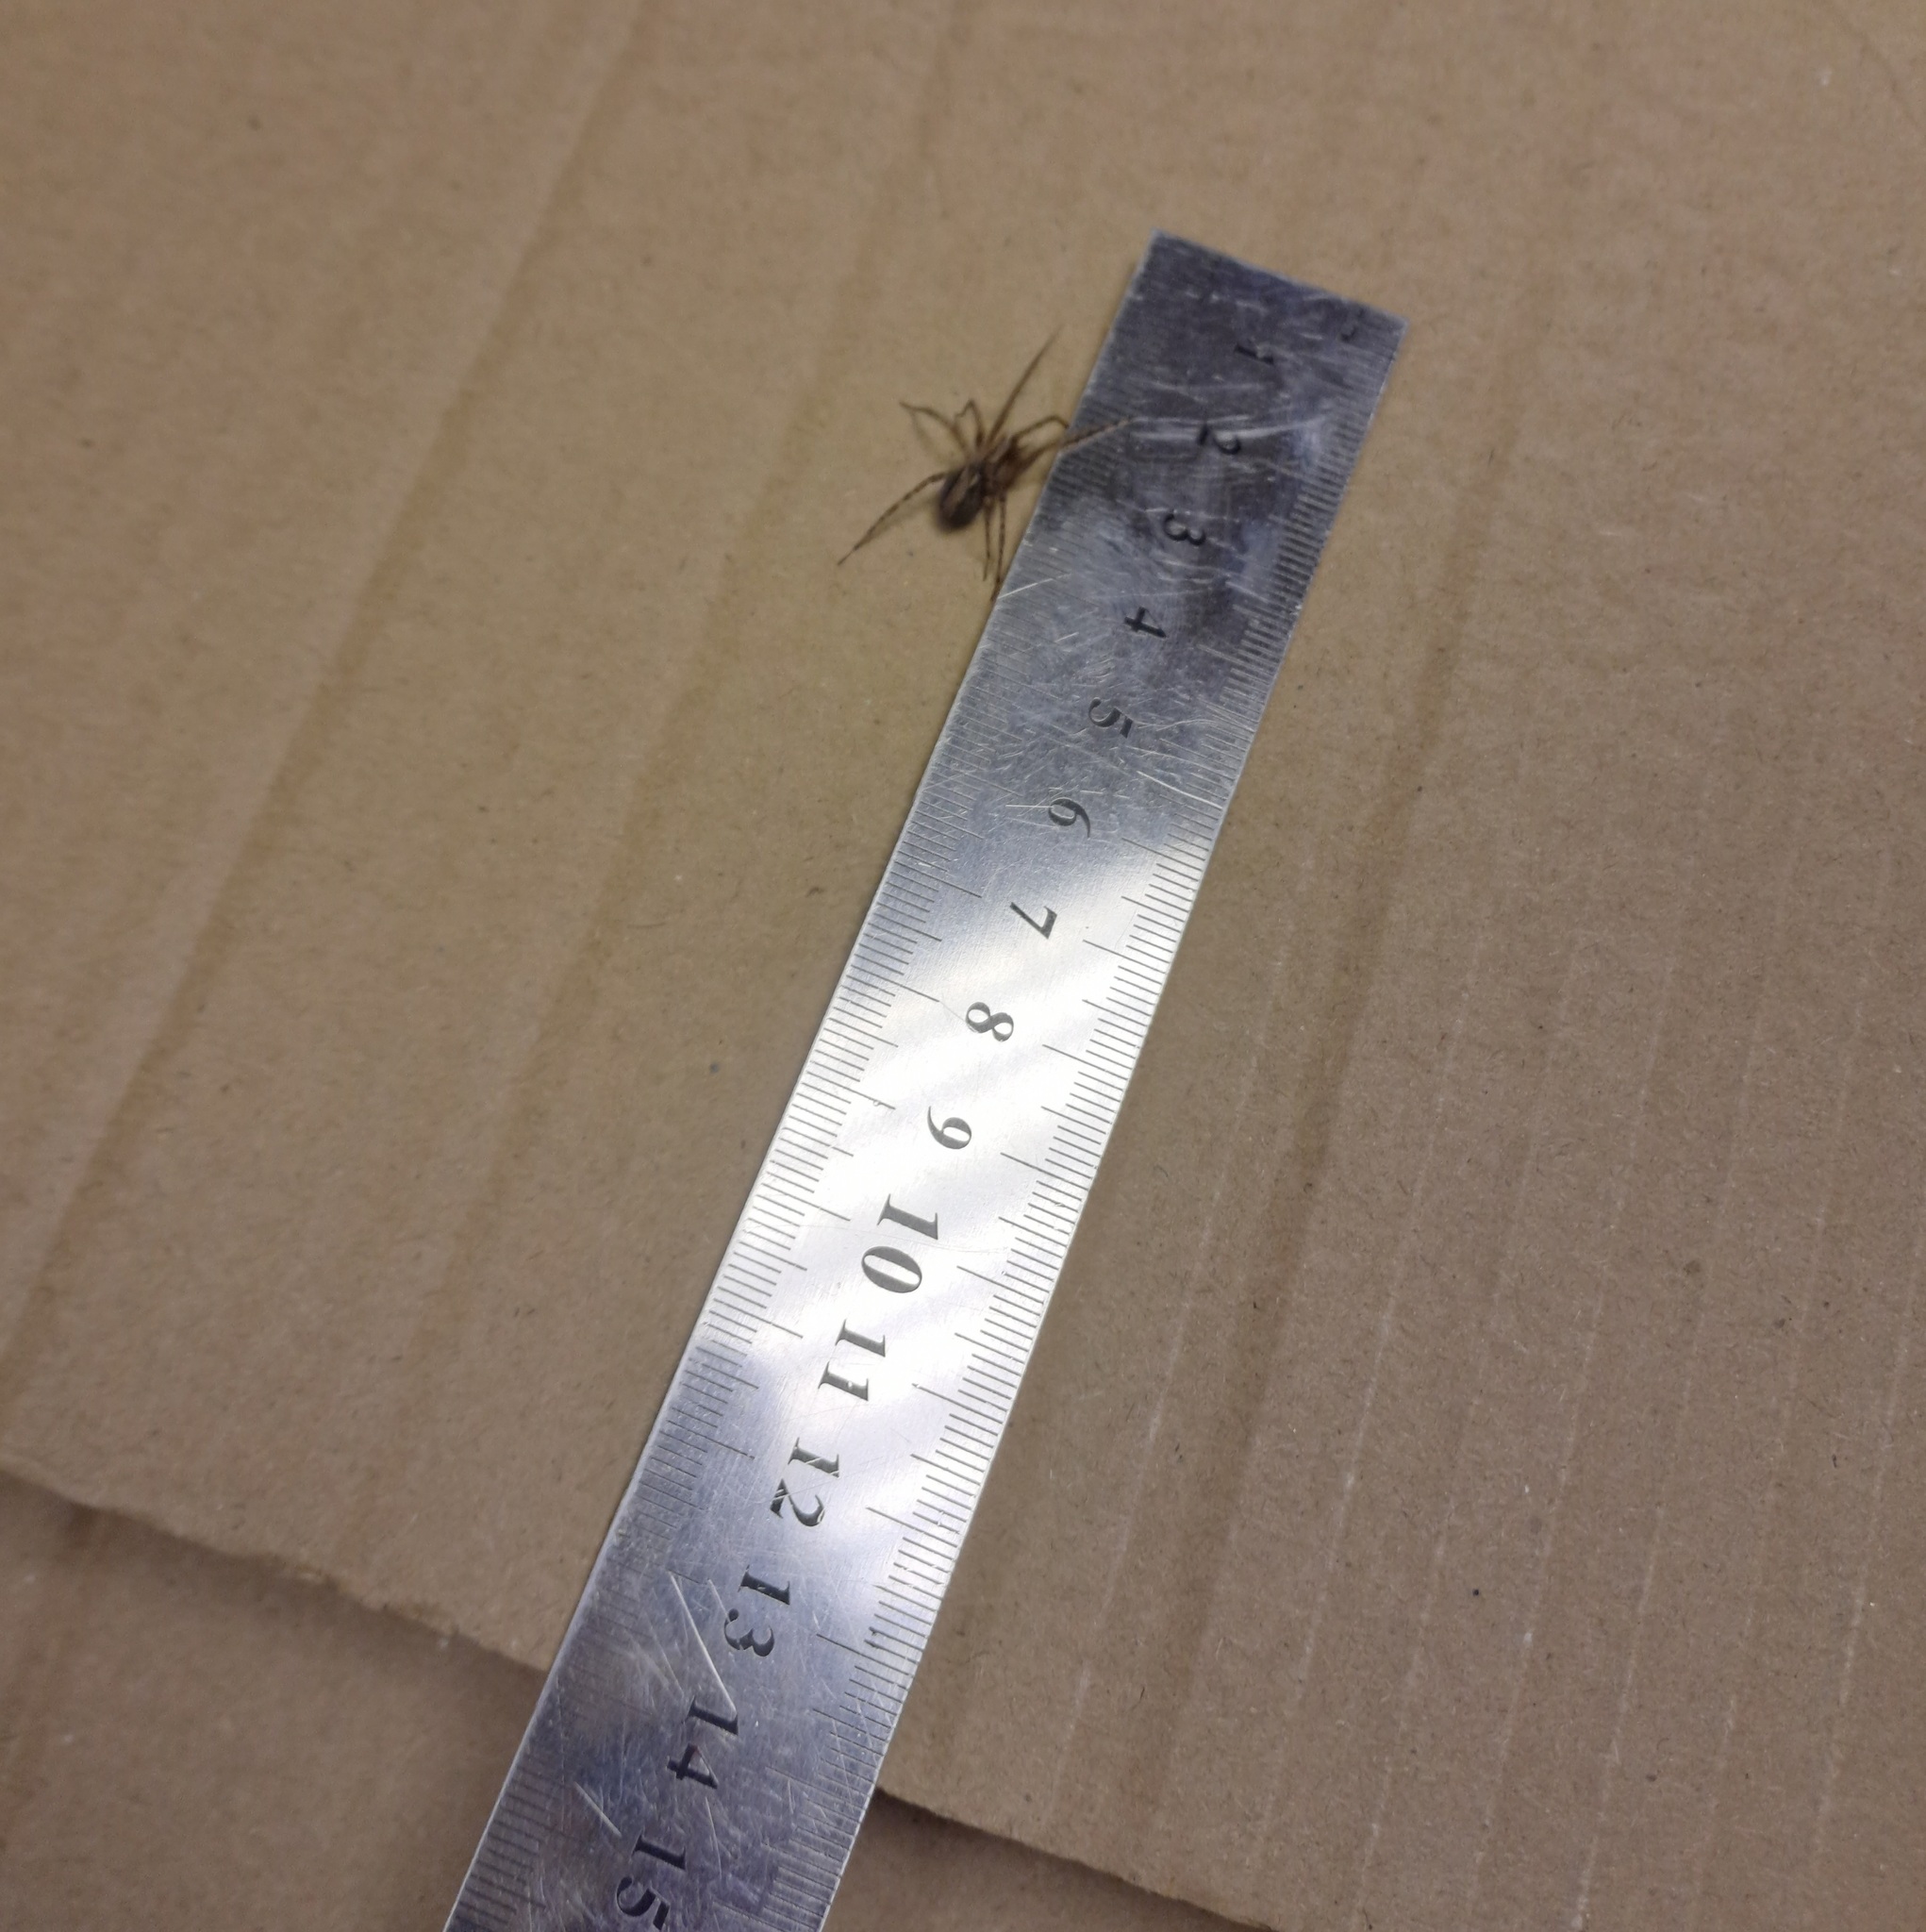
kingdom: Animalia
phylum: Arthropoda
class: Arachnida
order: Araneae
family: Agelenidae
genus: Tegenaria
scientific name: Tegenaria domestica
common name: Barn funnel weaver
